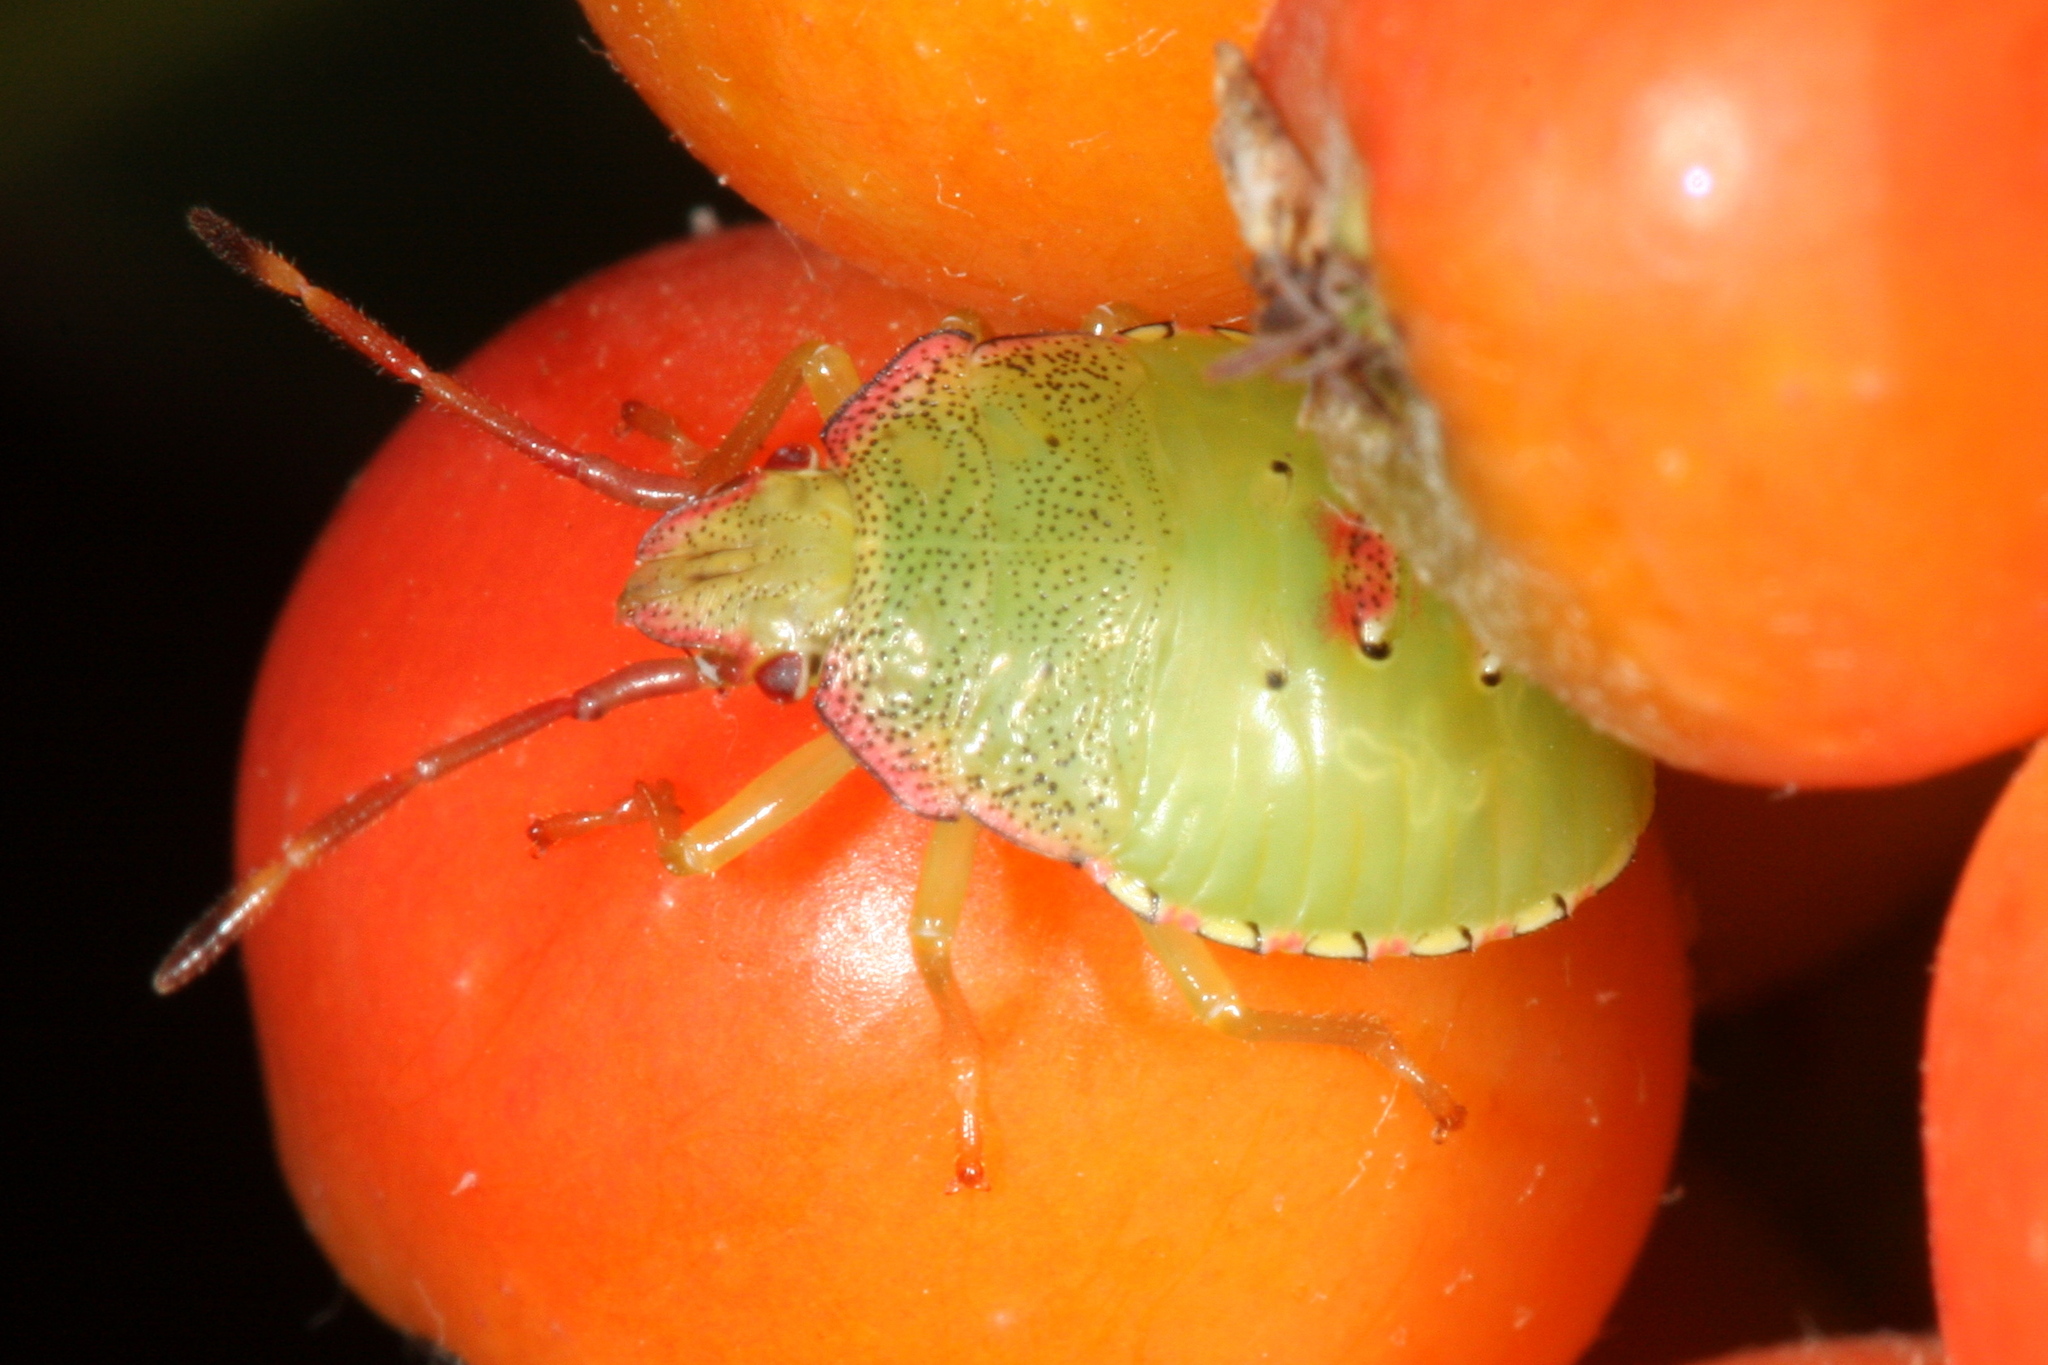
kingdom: Animalia
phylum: Arthropoda
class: Insecta
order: Hemiptera
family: Acanthosomatidae
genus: Acanthosoma
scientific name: Acanthosoma haemorrhoidale
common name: Hawthorn shieldbug
